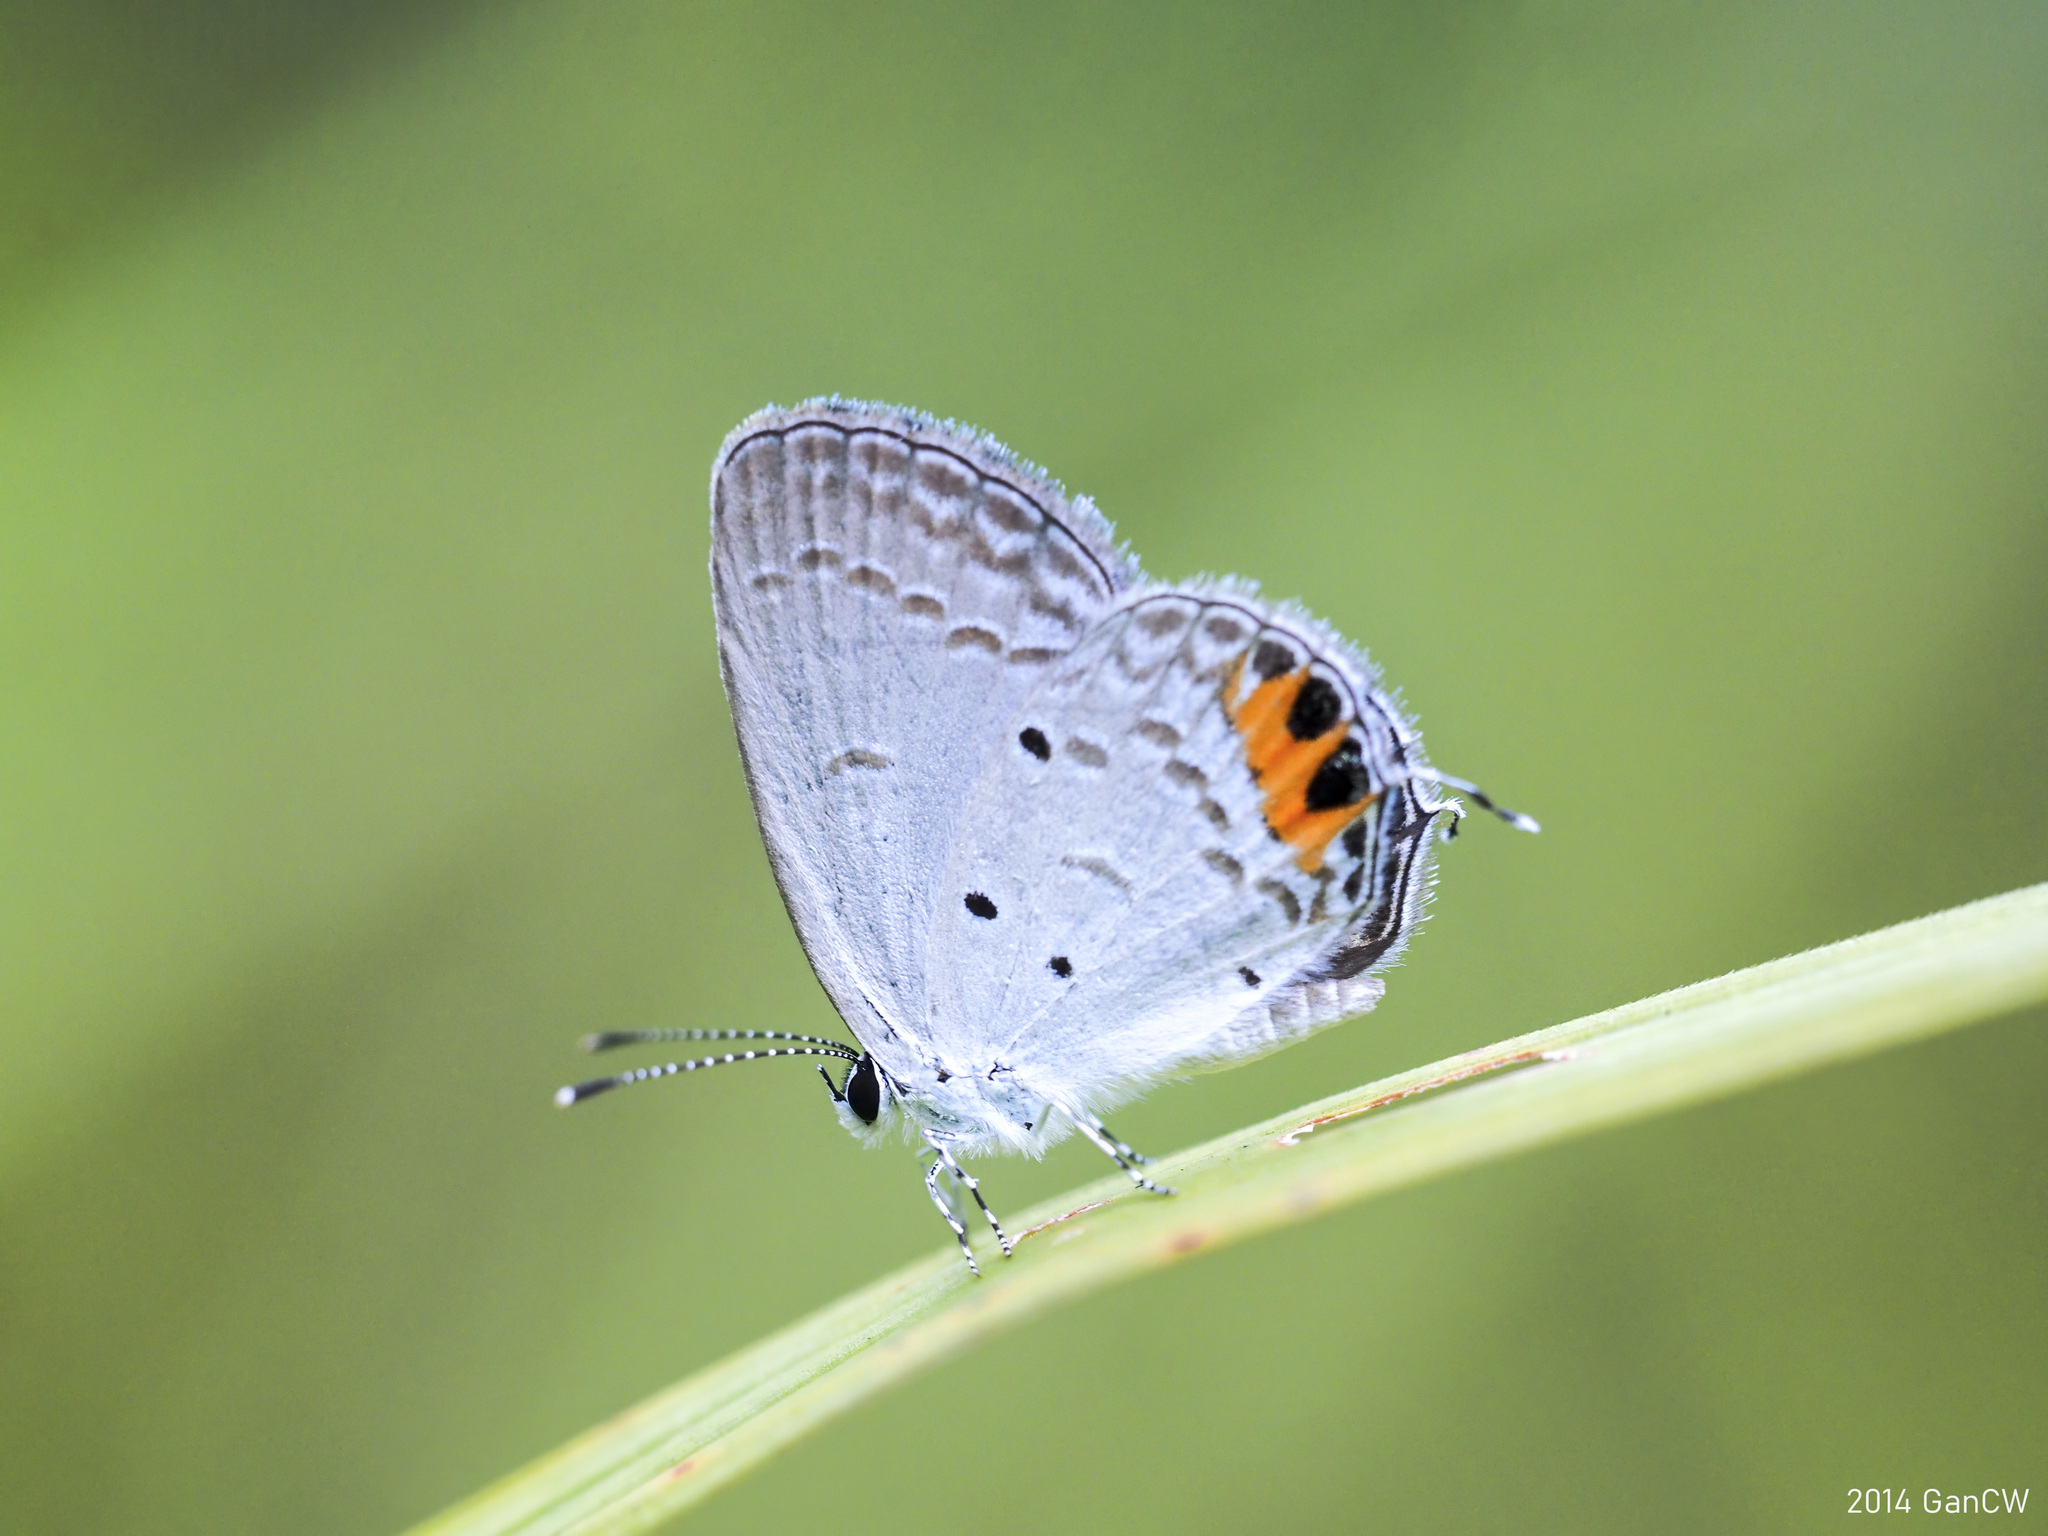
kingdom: Animalia
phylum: Arthropoda
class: Insecta
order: Lepidoptera
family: Lycaenidae
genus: Everes
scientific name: Everes lacturnus
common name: Orange-tipped pea-blue
